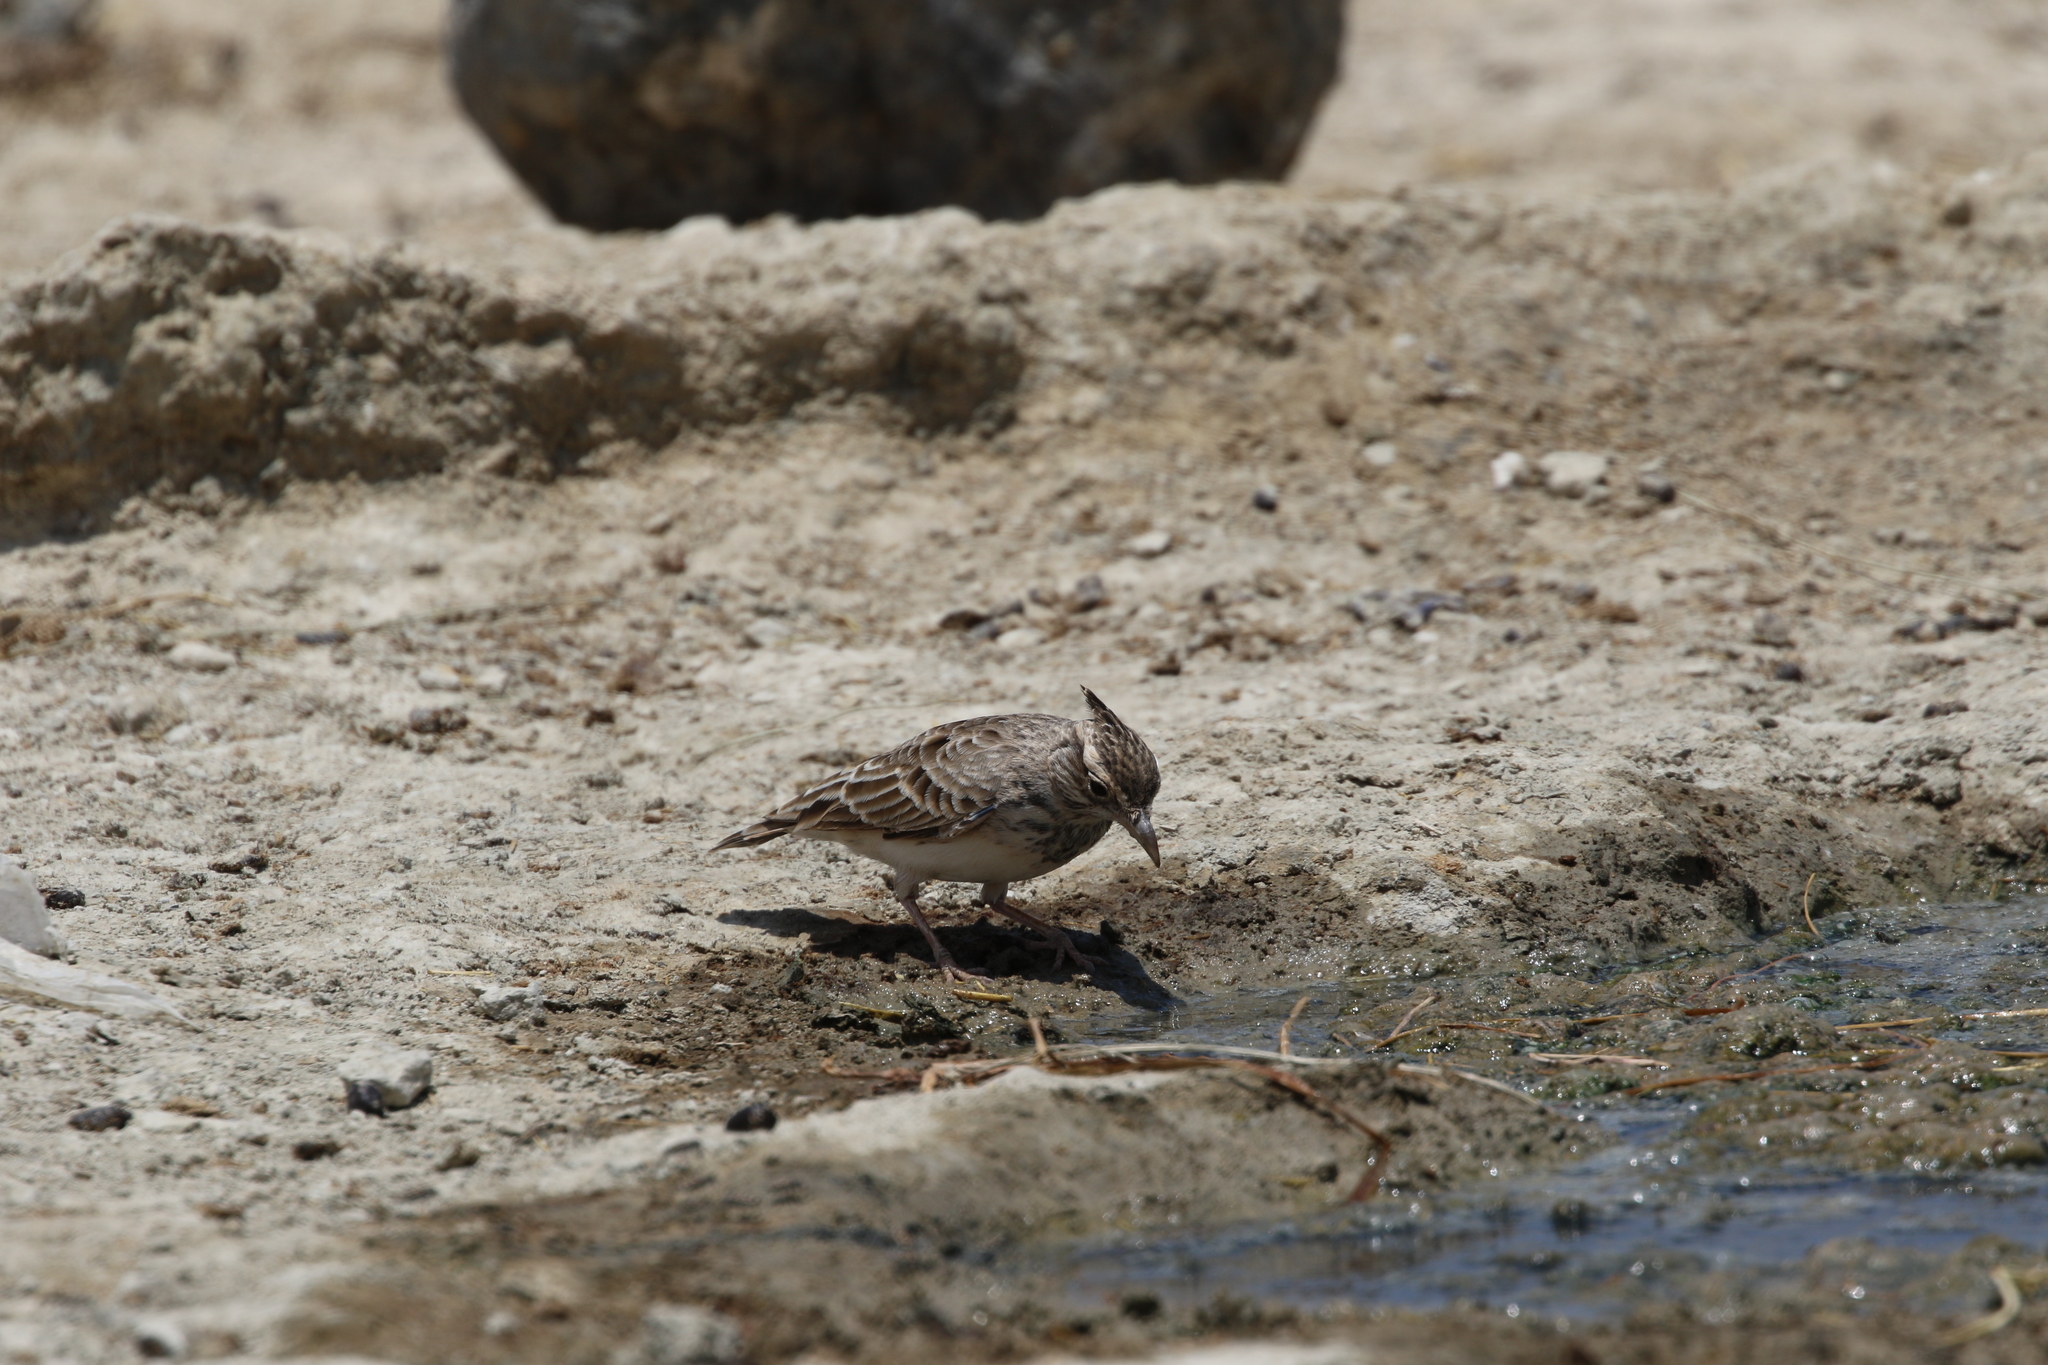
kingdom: Animalia
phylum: Chordata
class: Aves
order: Passeriformes
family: Alaudidae
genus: Galerida
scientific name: Galerida cristata
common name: Crested lark
